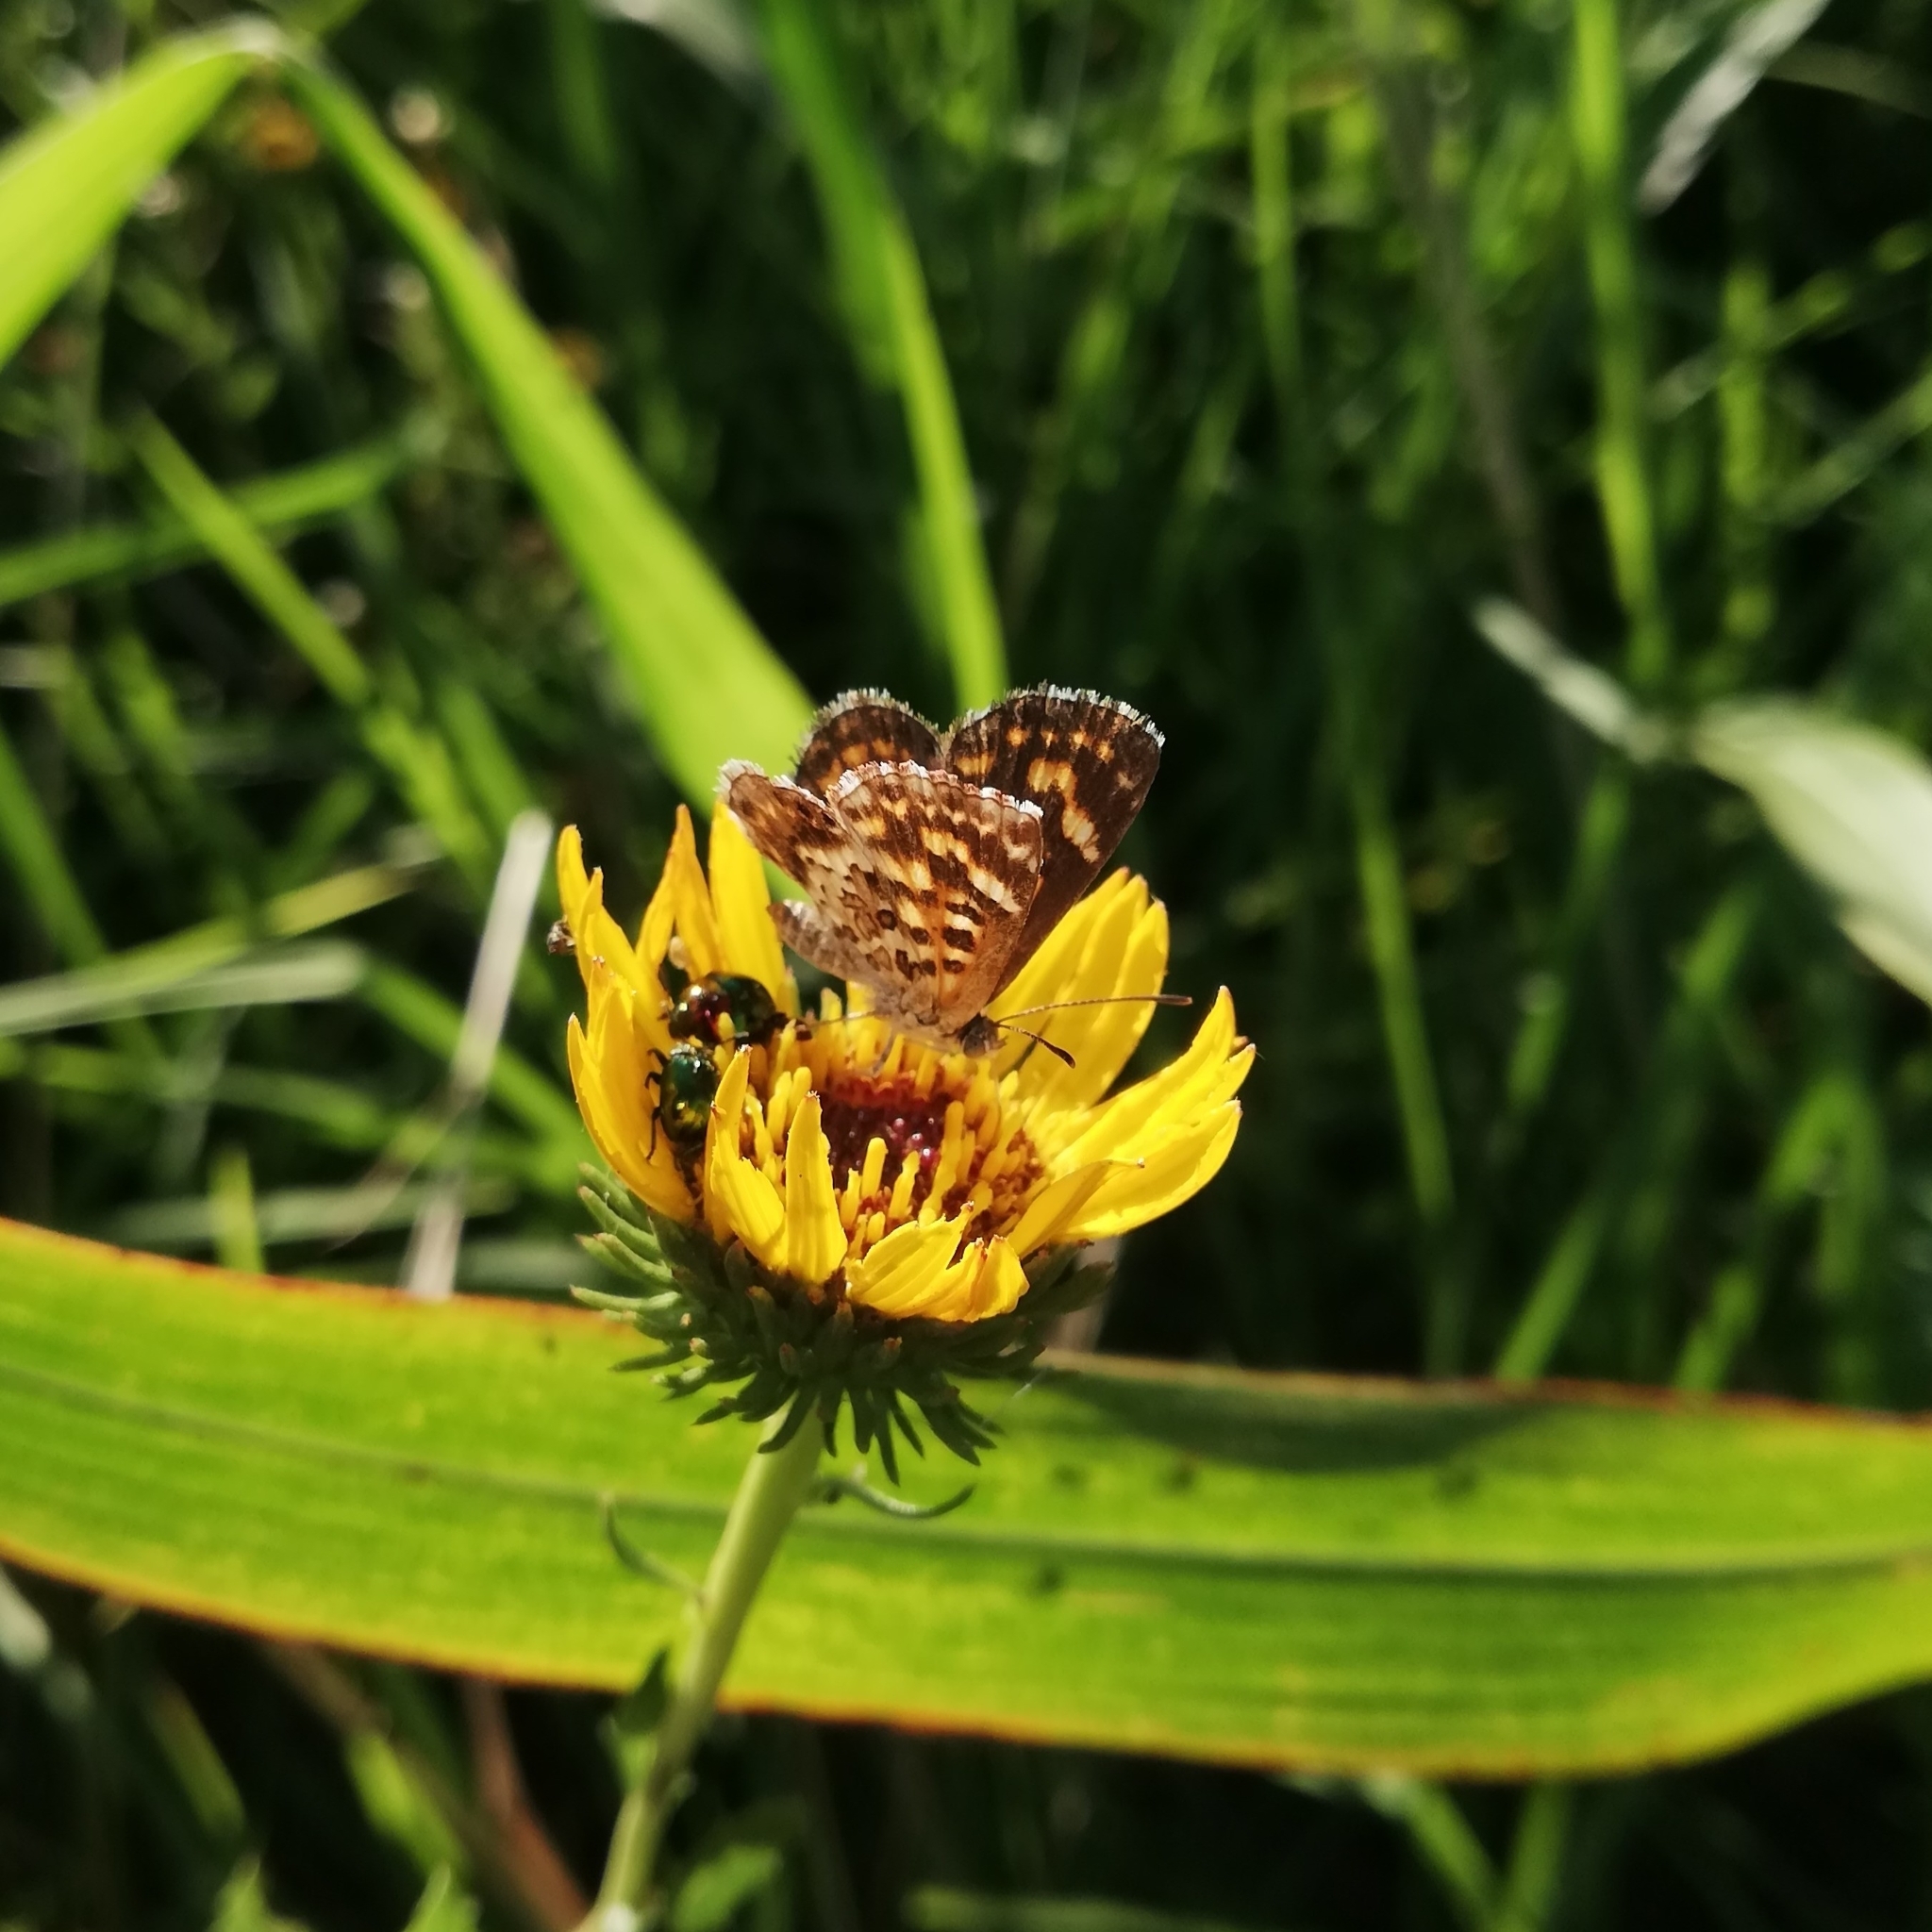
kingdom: Animalia
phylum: Arthropoda
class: Insecta
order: Lepidoptera
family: Lycaenidae
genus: Aricoris
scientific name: Aricoris signata
